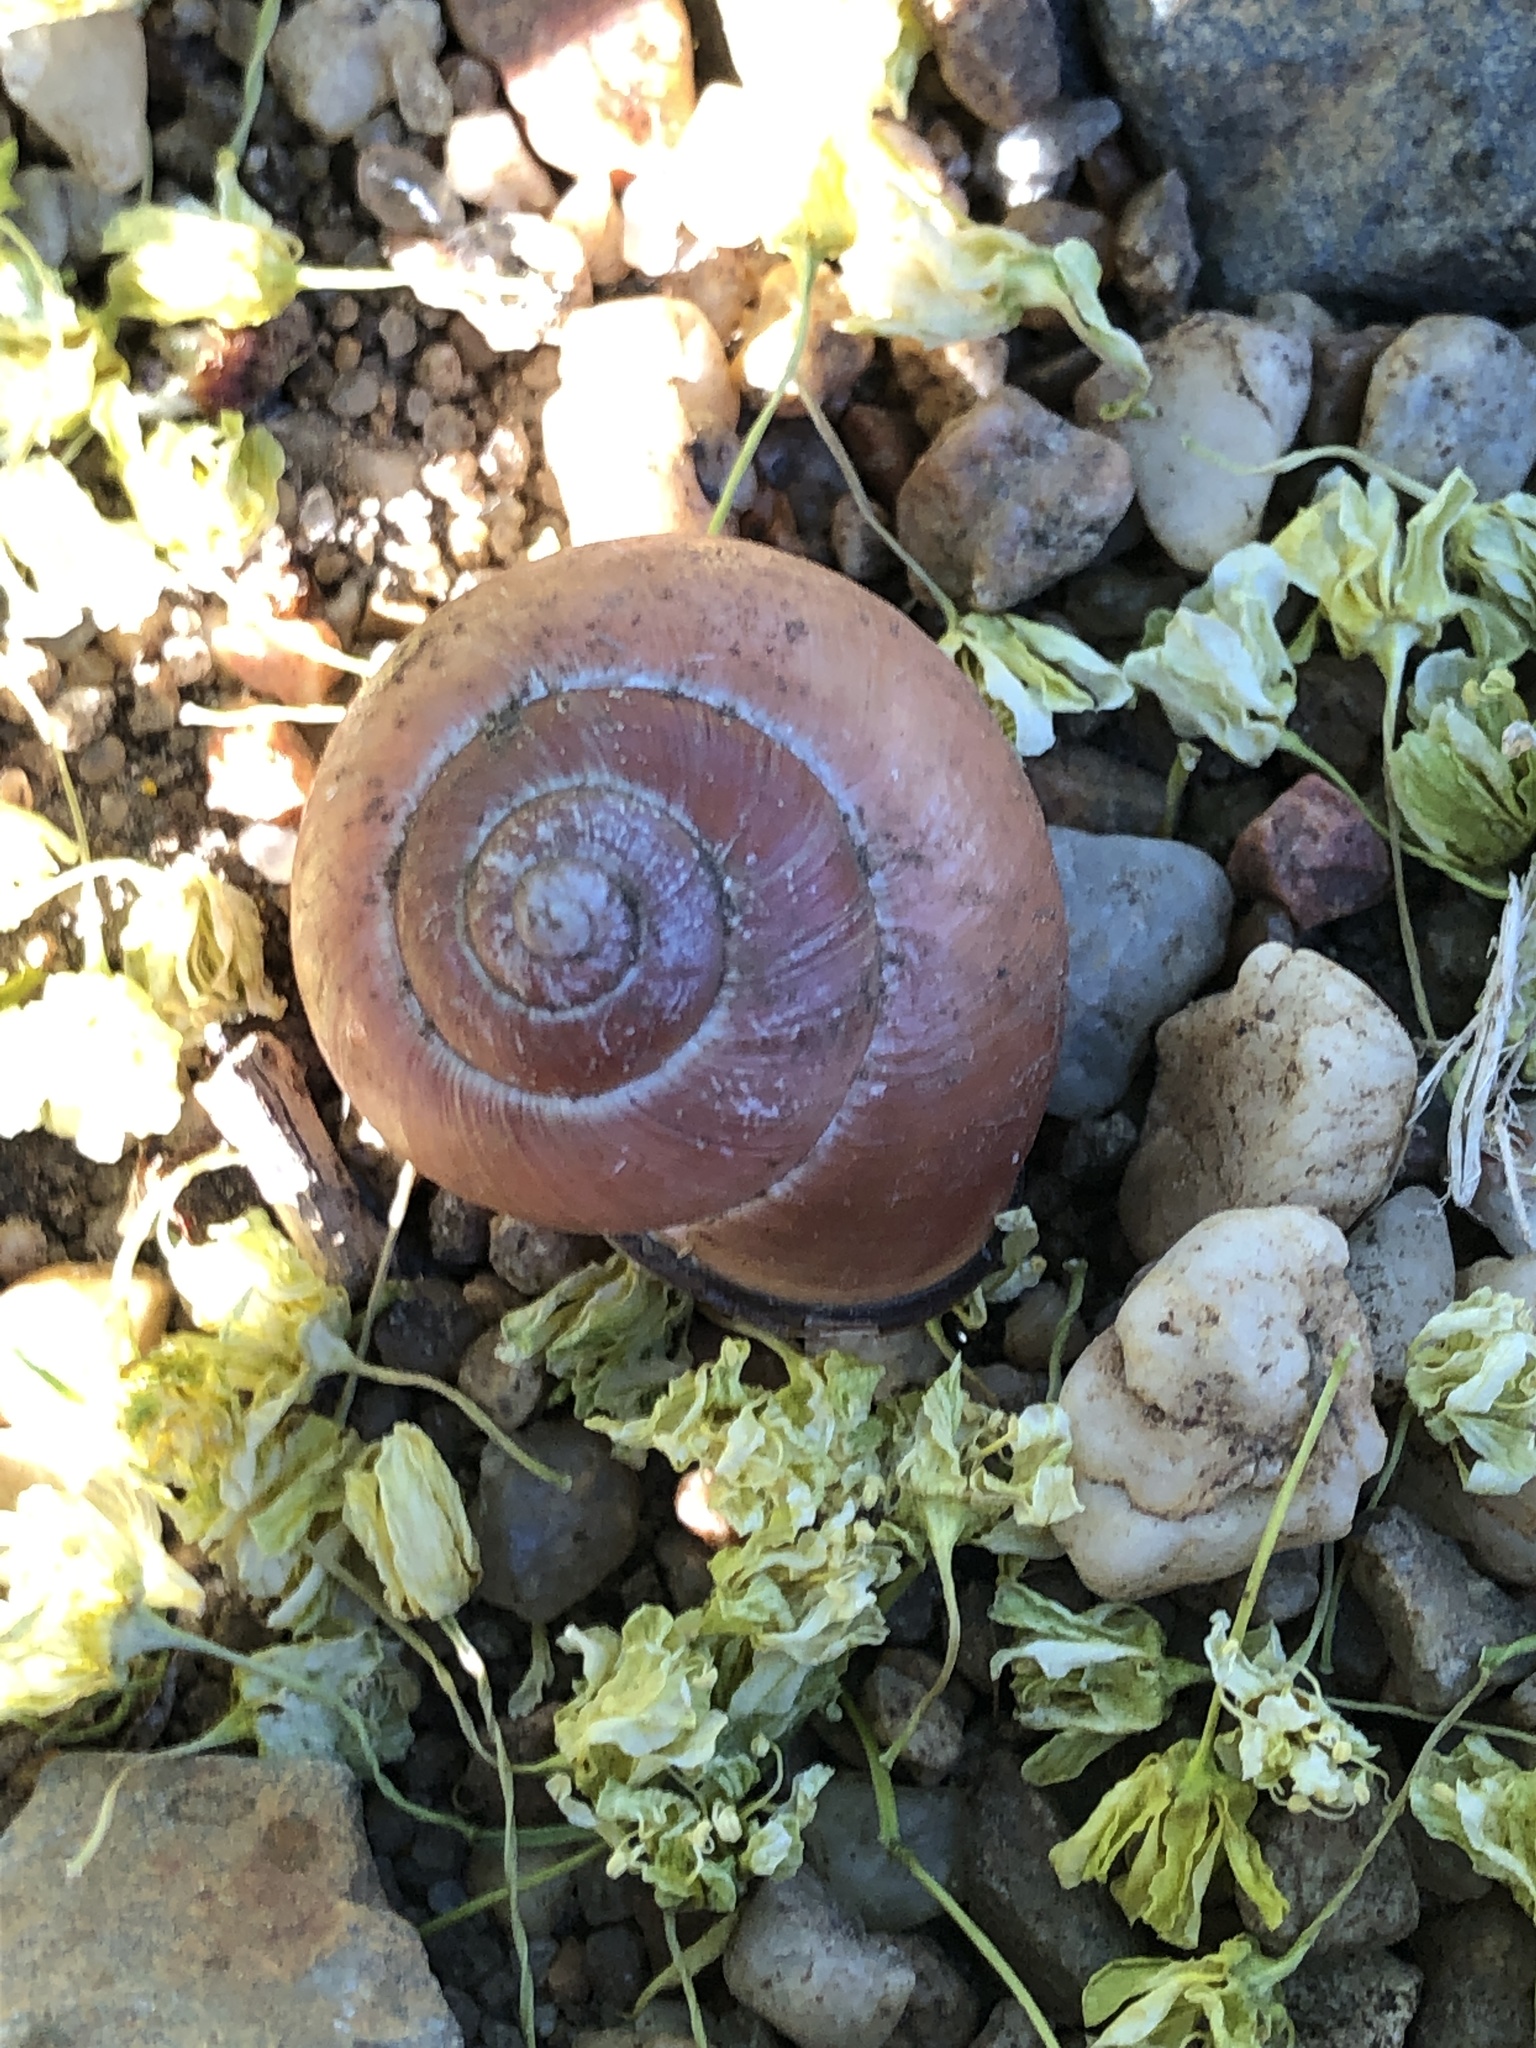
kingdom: Animalia
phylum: Mollusca
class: Gastropoda
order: Stylommatophora
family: Helicidae
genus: Cepaea
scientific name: Cepaea nemoralis
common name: Grovesnail
